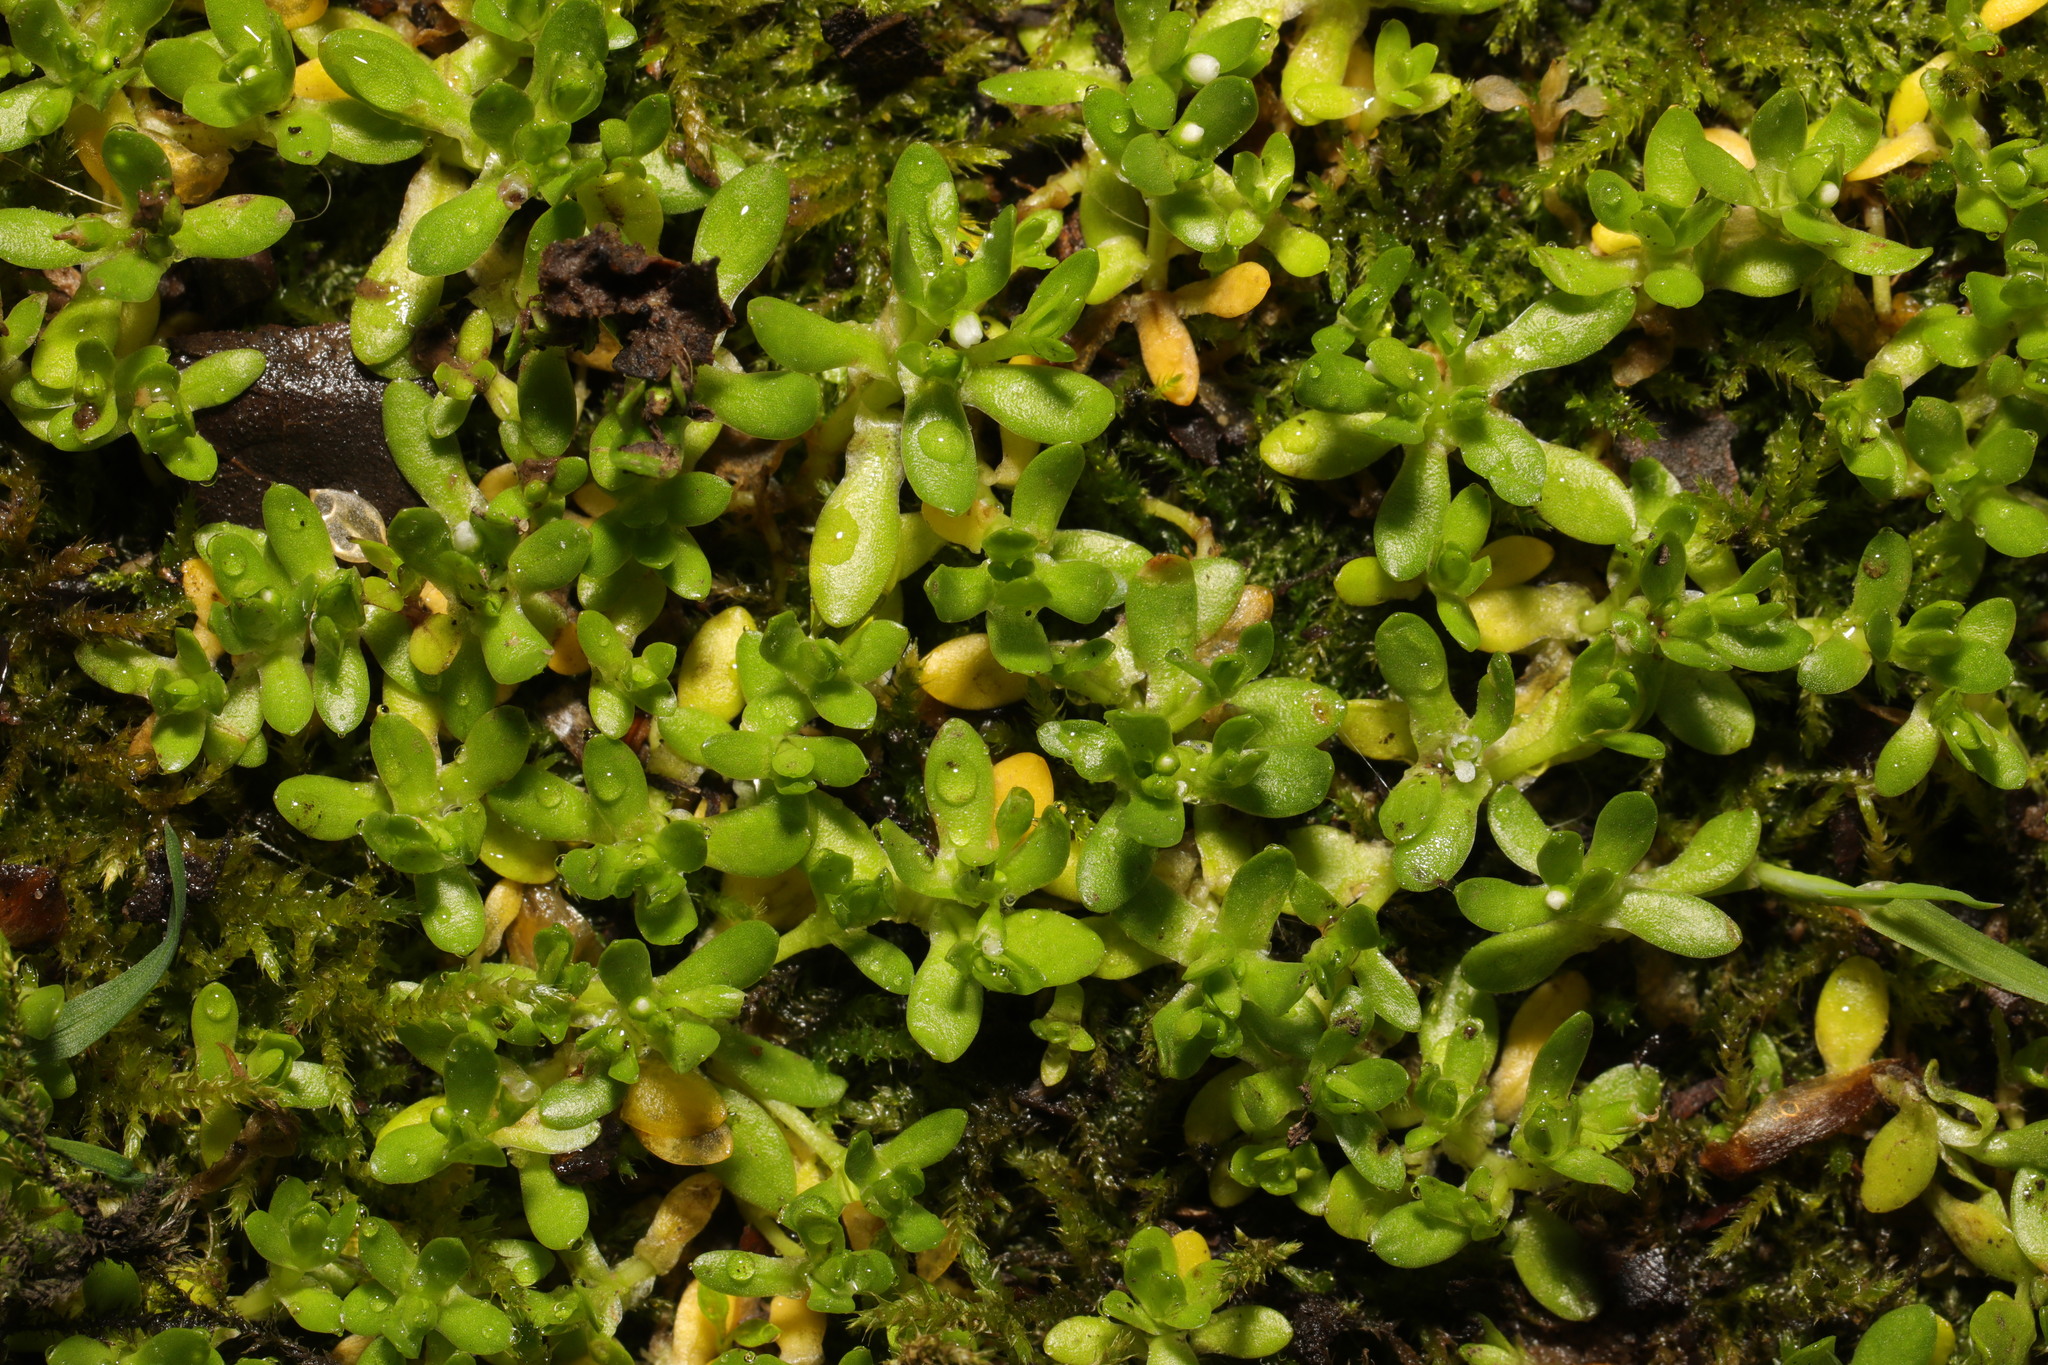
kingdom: Plantae
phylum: Tracheophyta
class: Magnoliopsida
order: Caryophyllales
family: Montiaceae
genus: Montia
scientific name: Montia fontana
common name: Blinks
